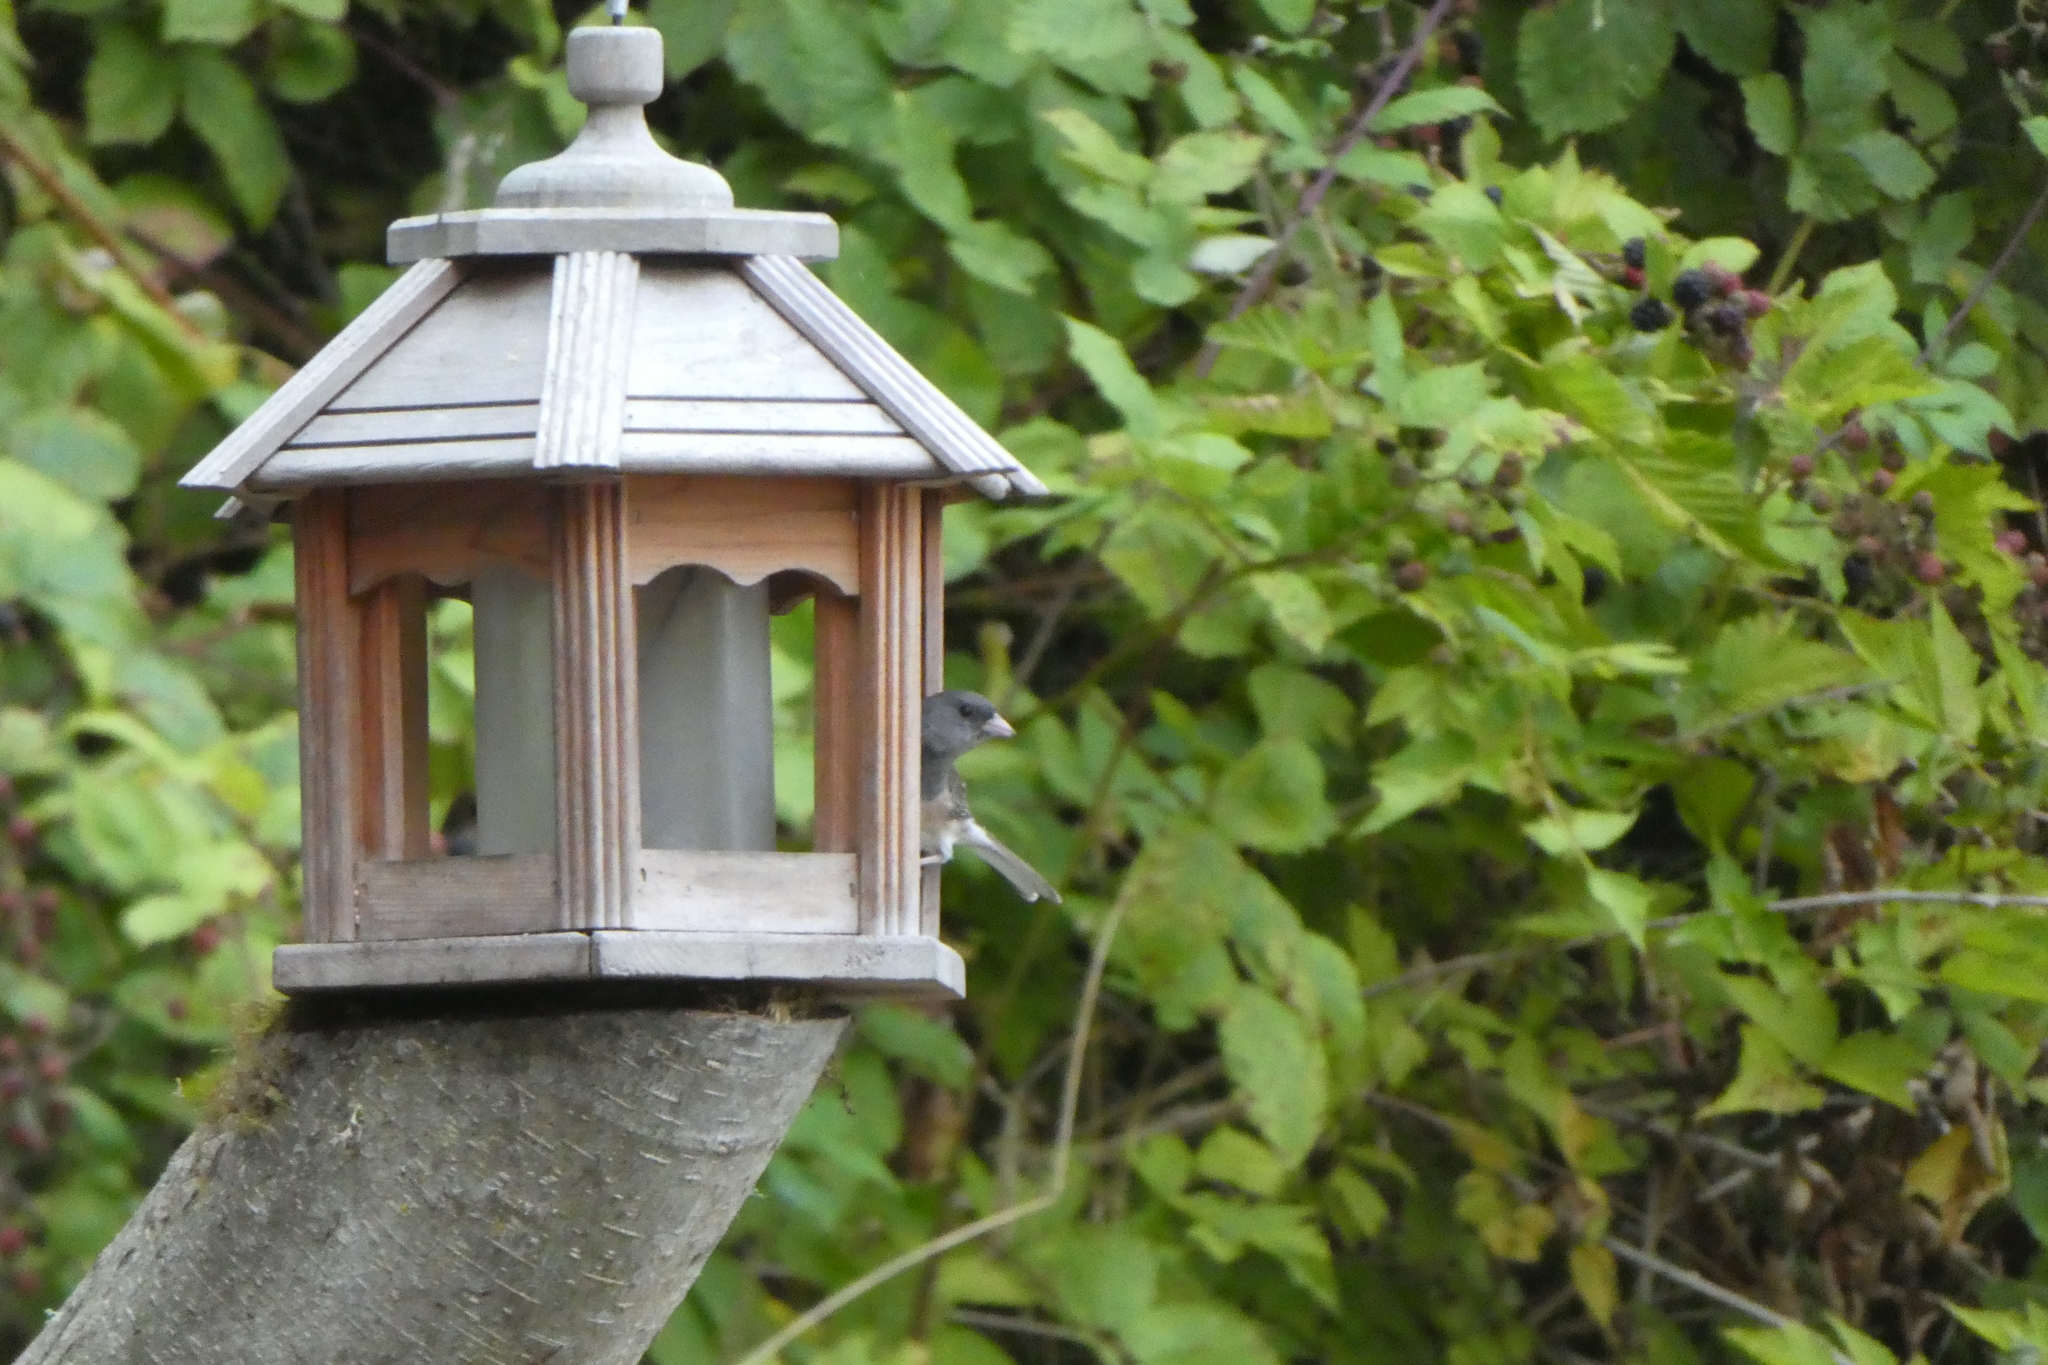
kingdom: Animalia
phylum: Chordata
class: Aves
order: Passeriformes
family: Passerellidae
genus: Junco
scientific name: Junco hyemalis
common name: Dark-eyed junco
